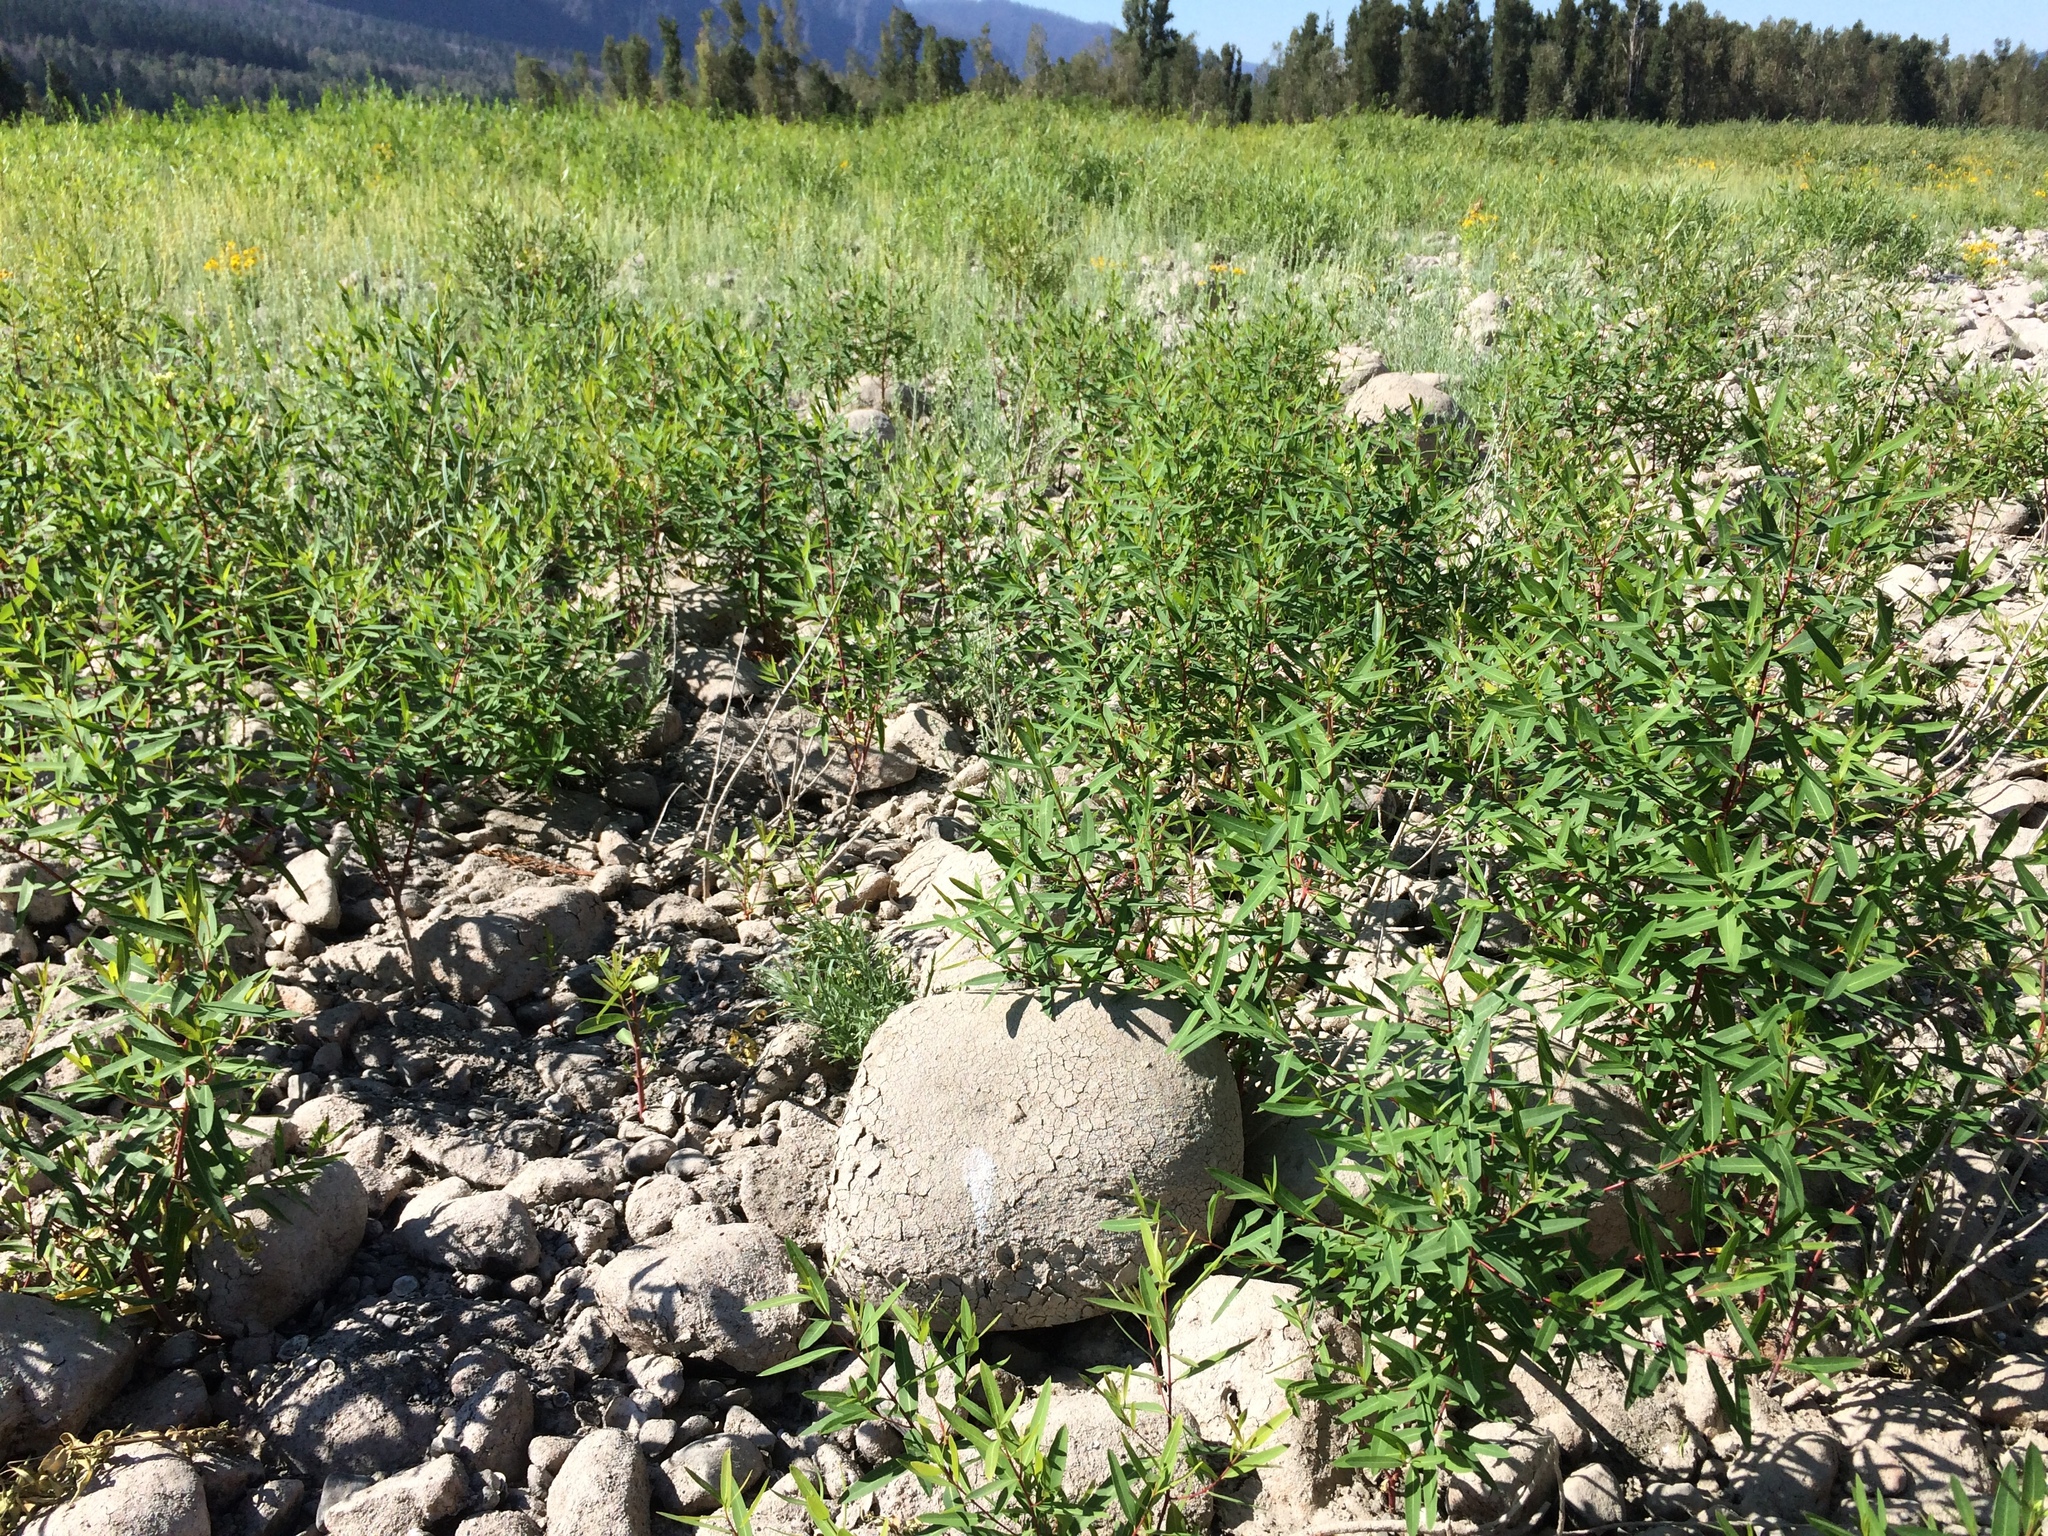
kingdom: Plantae
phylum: Tracheophyta
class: Magnoliopsida
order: Gentianales
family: Apocynaceae
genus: Apocynum
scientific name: Apocynum cannabinum
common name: Hemp dogbane
